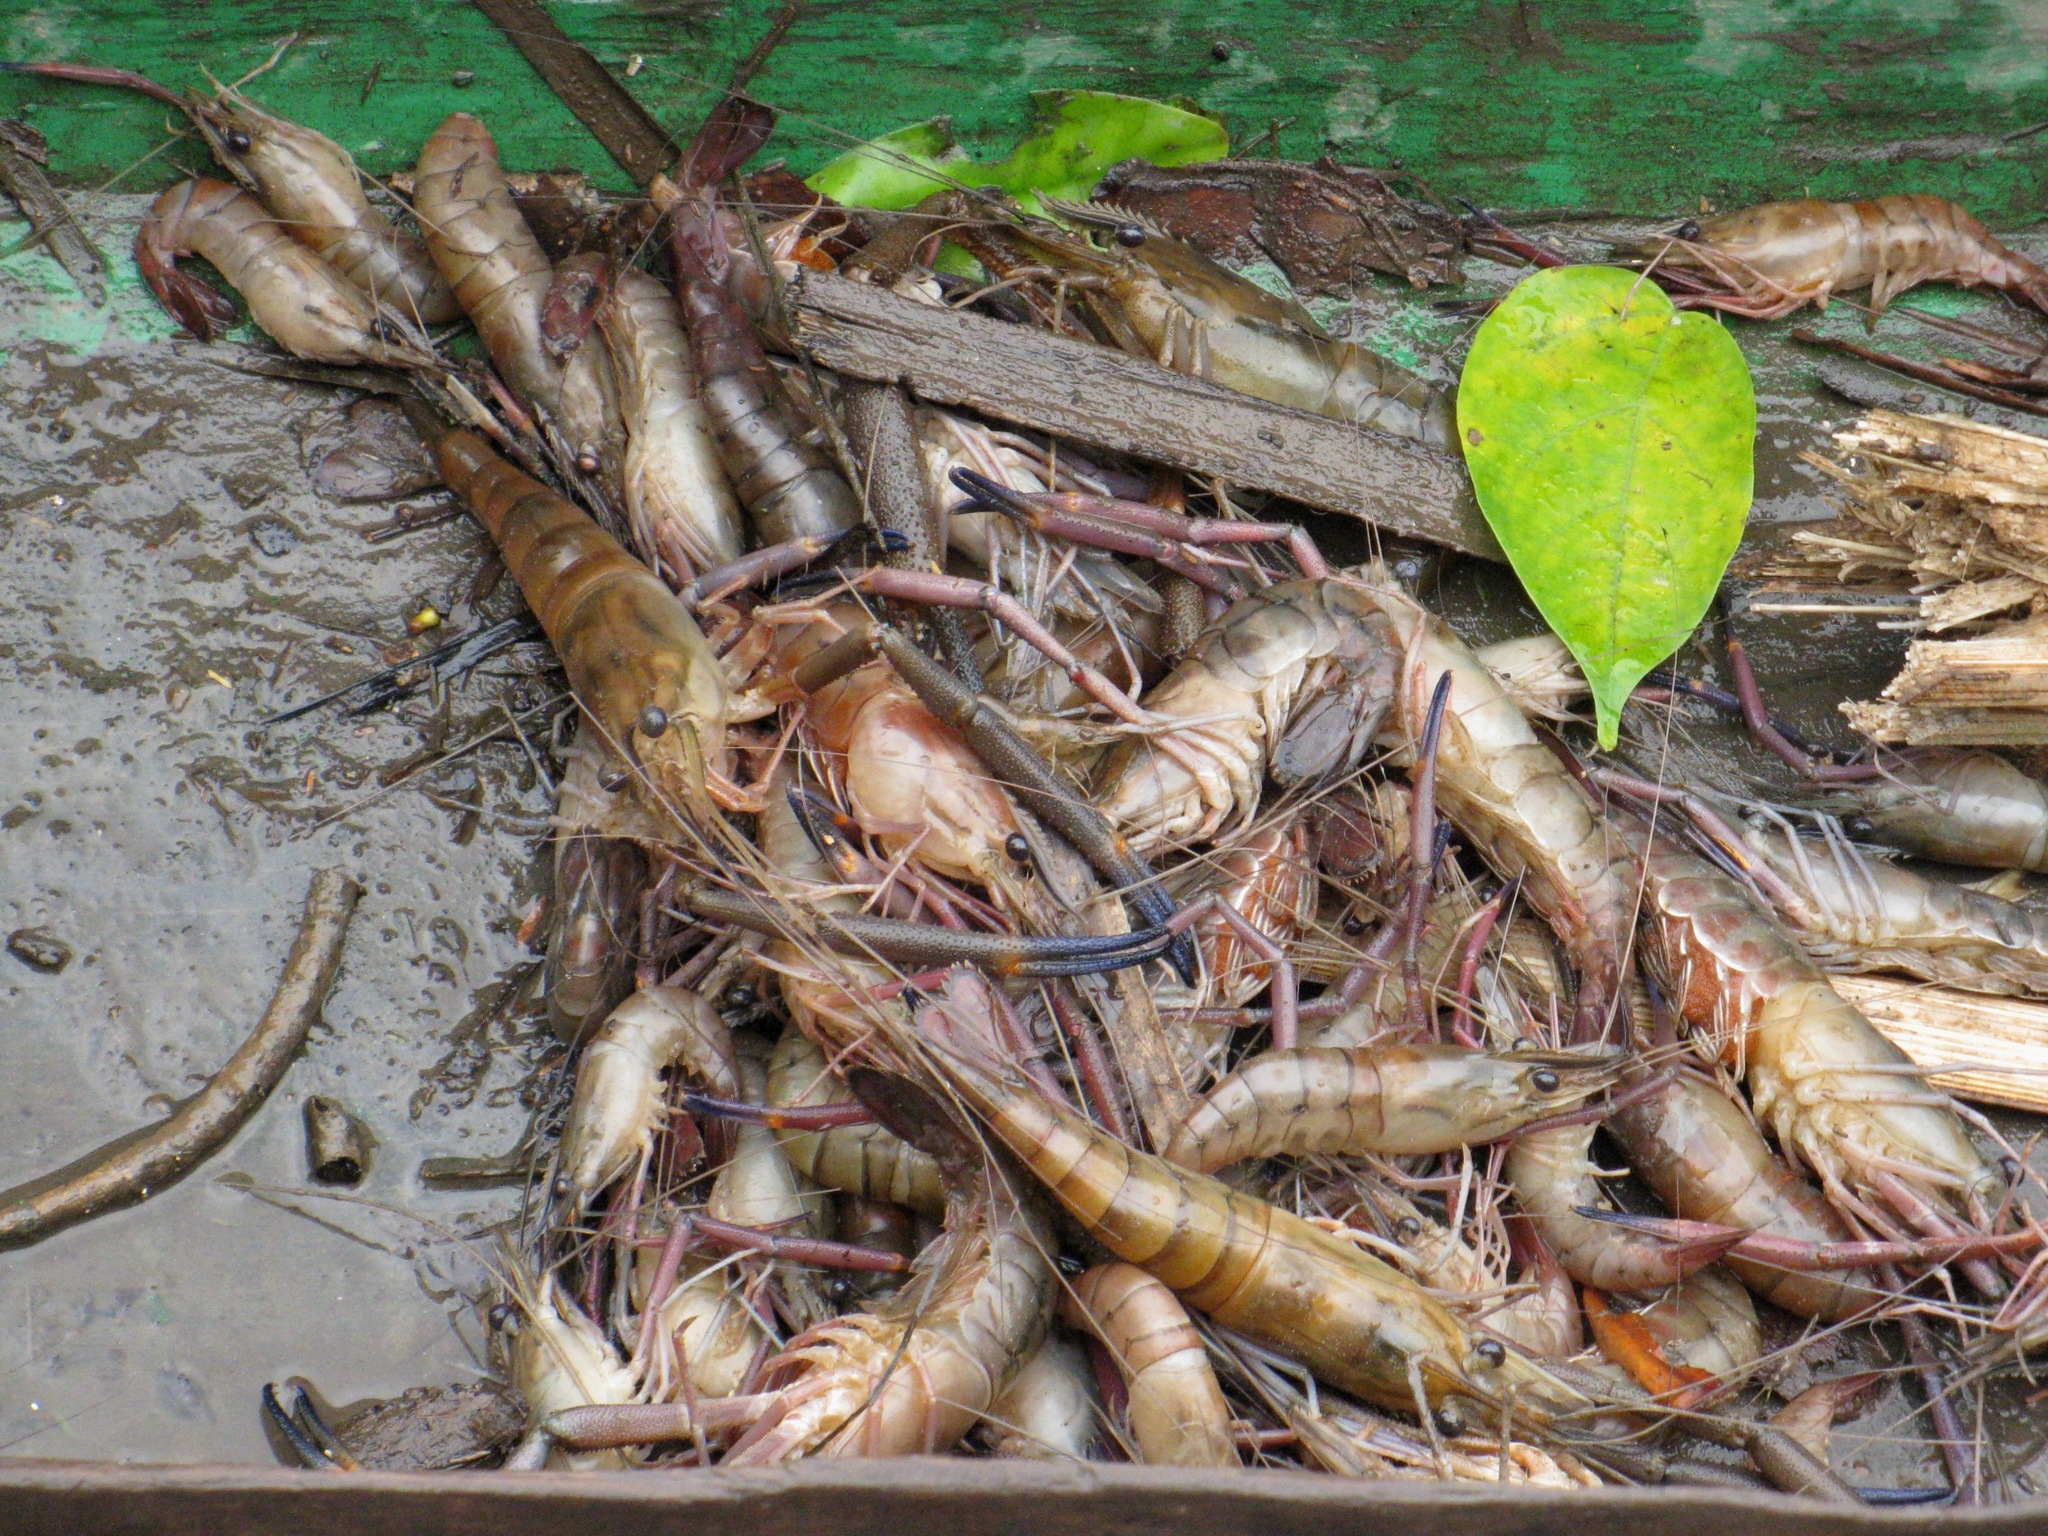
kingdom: Animalia
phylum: Arthropoda
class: Malacostraca
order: Decapoda
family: Palaemonidae
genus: Macrobrachium
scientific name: Macrobrachium vollenhovenii
